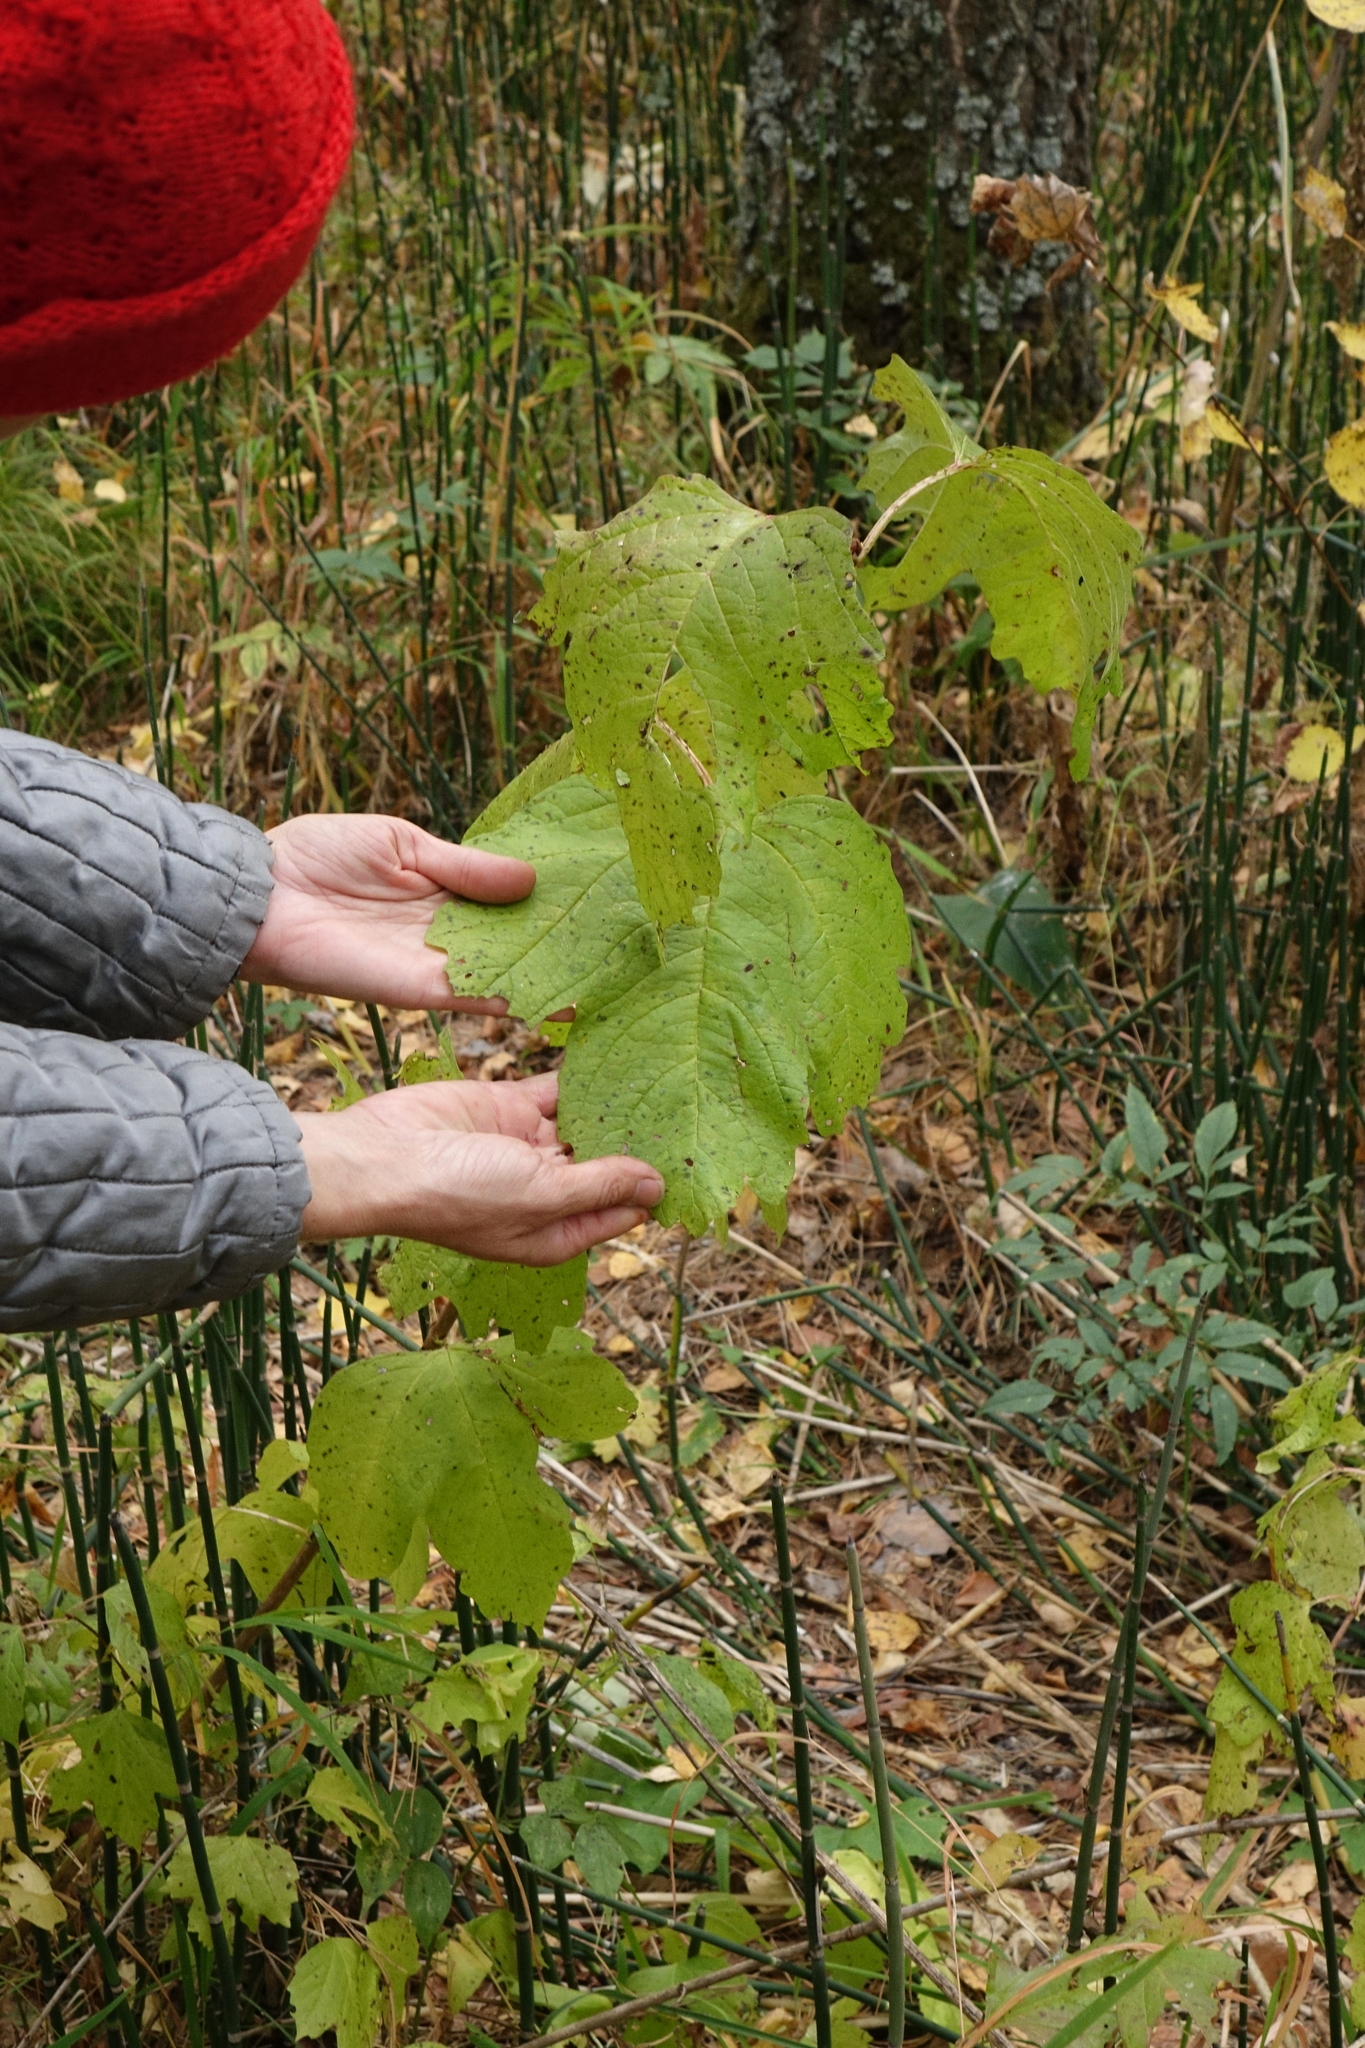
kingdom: Plantae
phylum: Tracheophyta
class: Magnoliopsida
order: Dipsacales
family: Viburnaceae
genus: Viburnum
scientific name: Viburnum opulus
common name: Guelder-rose
